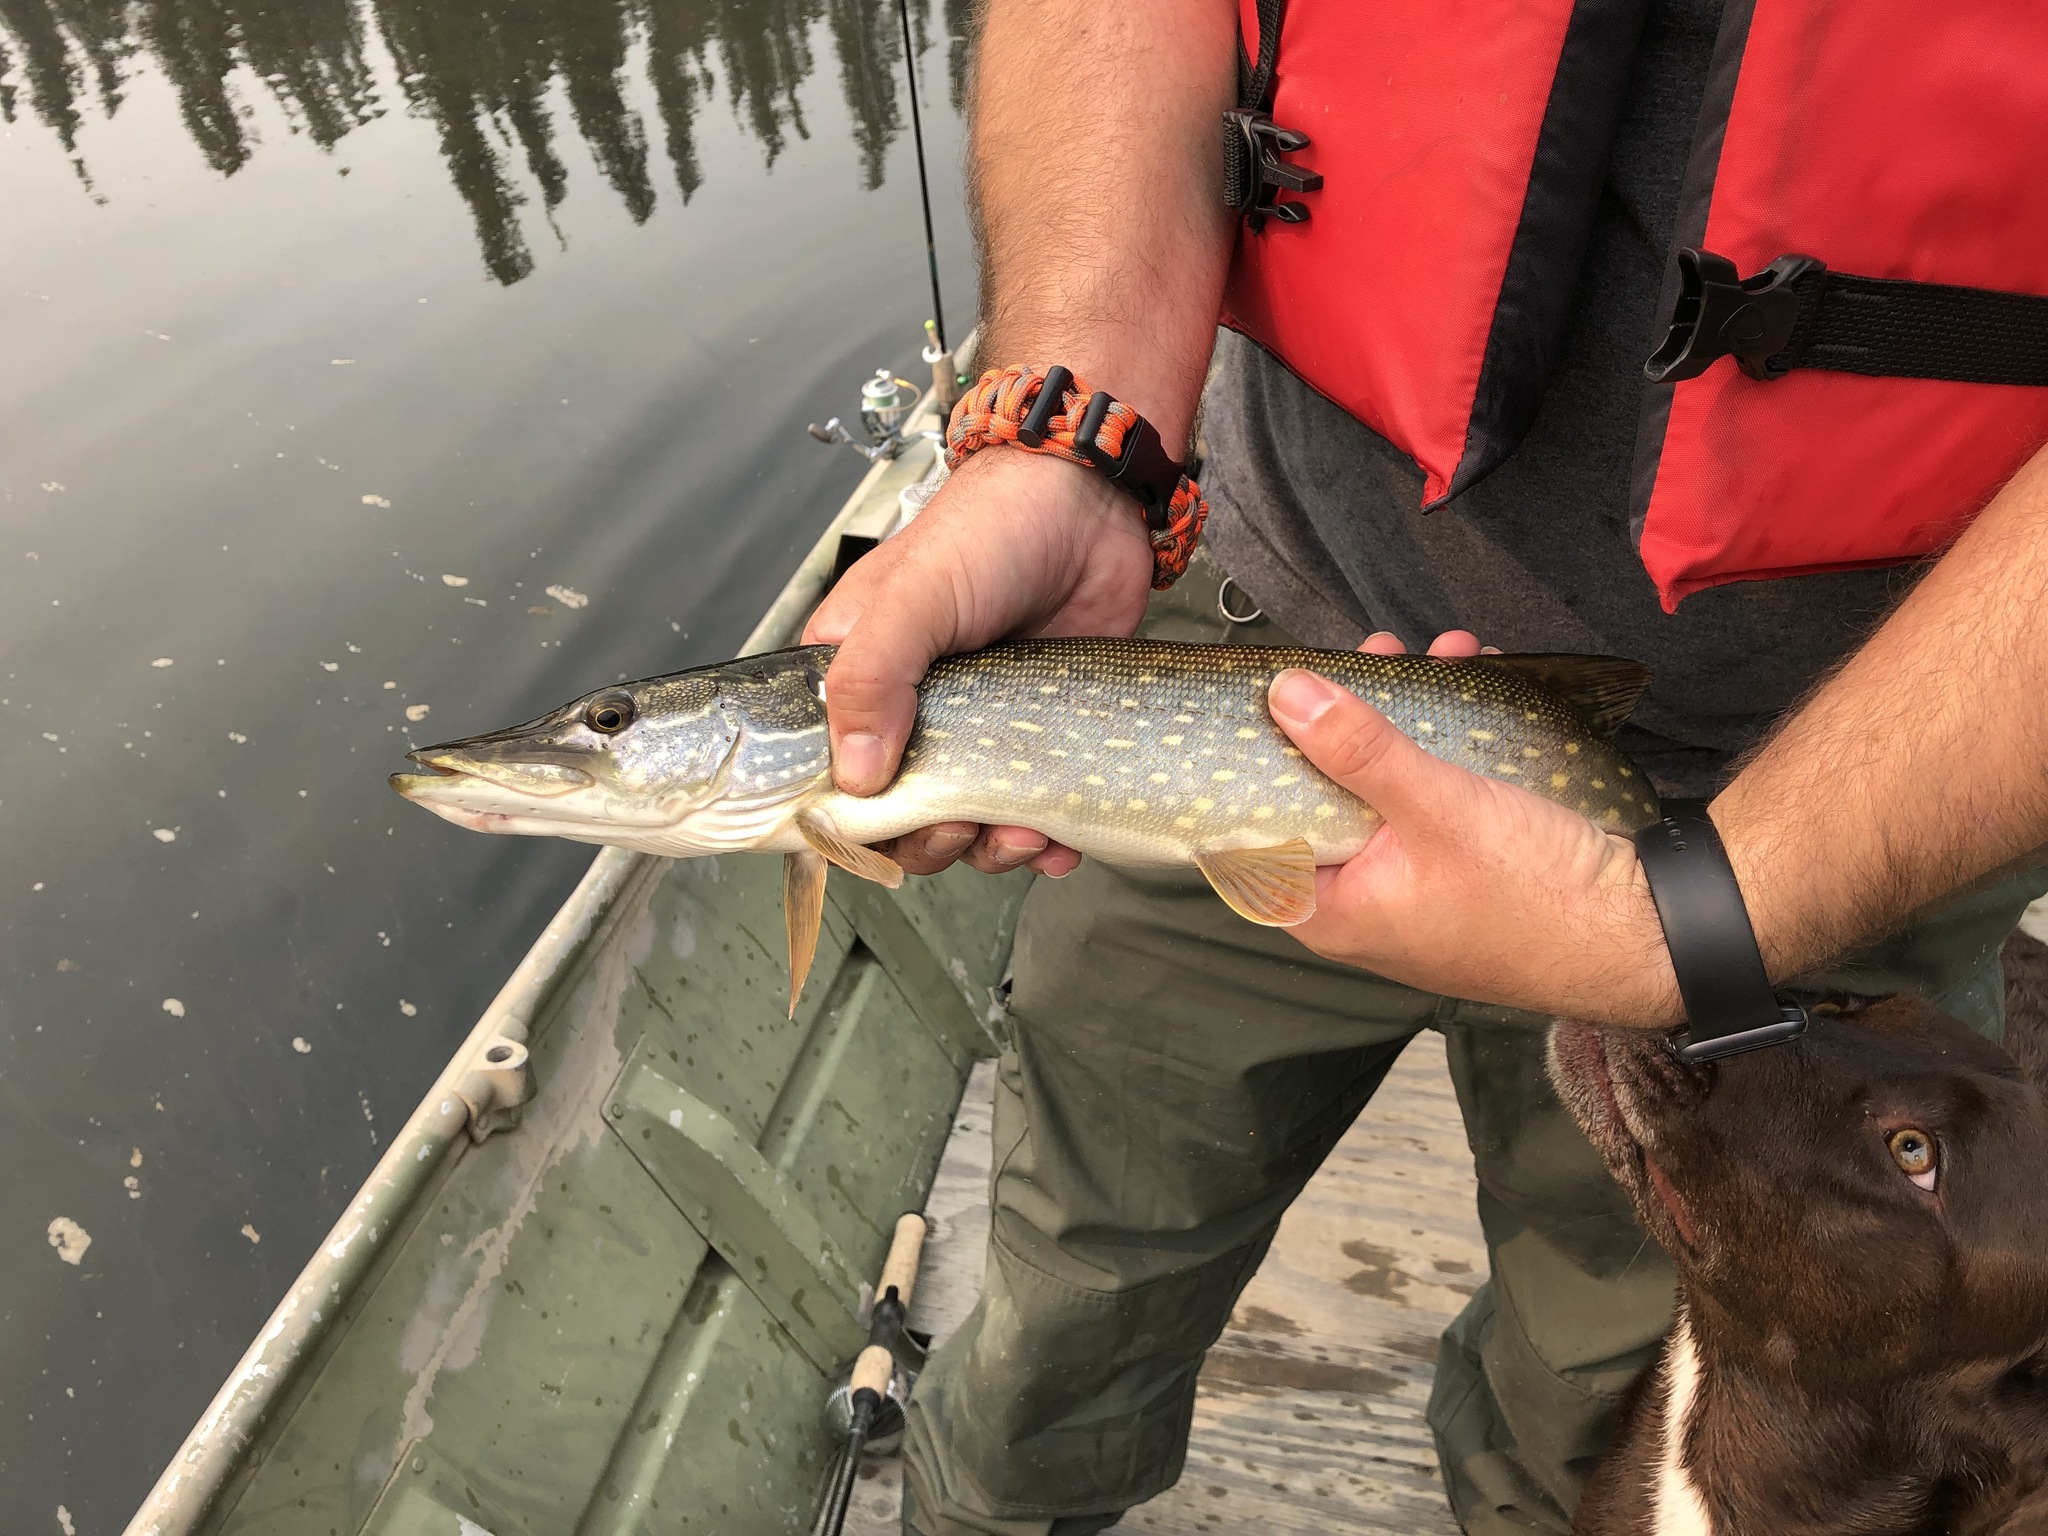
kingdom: Animalia
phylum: Chordata
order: Esociformes
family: Esocidae
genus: Esox
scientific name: Esox lucius
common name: Northern pike
